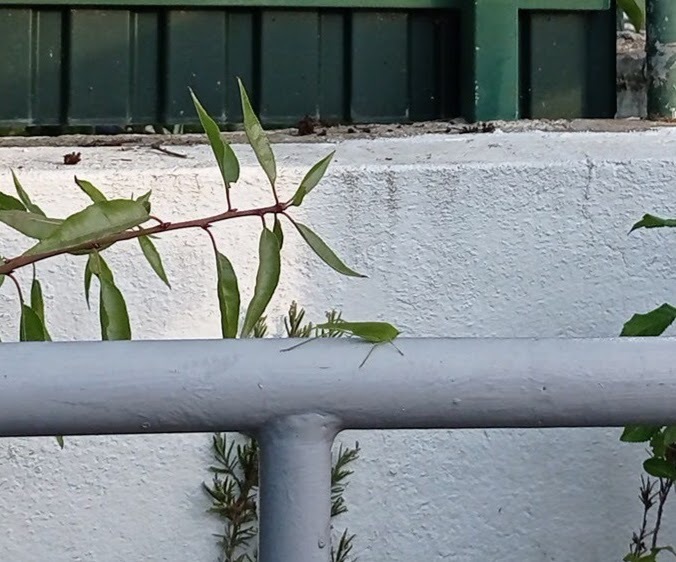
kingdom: Animalia
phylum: Arthropoda
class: Insecta
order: Orthoptera
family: Tettigoniidae
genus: Phaneroptera
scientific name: Phaneroptera nana
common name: Southern sickle bush-cricket
